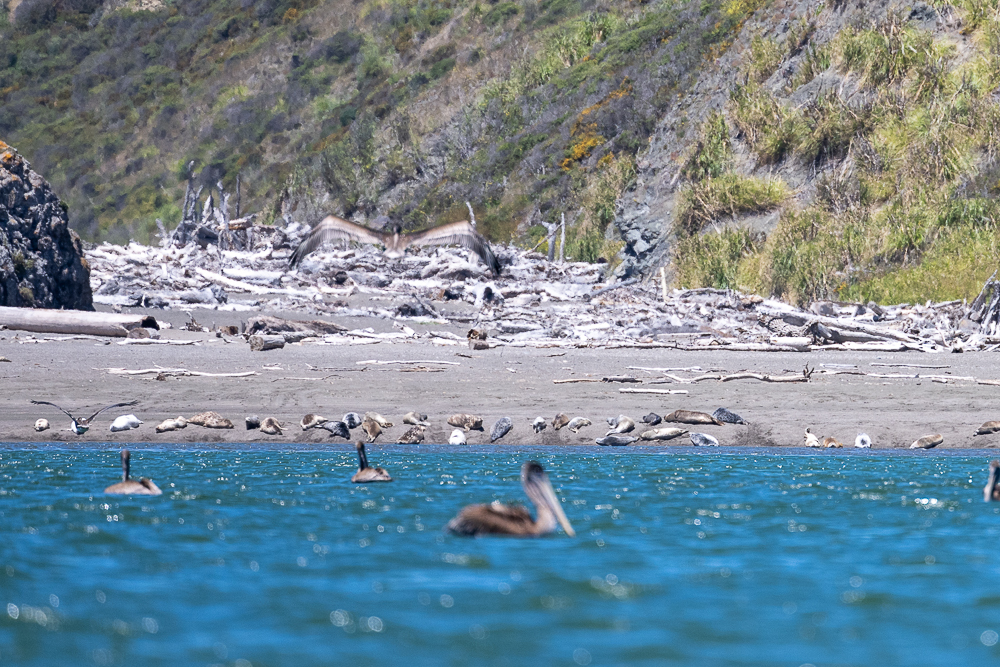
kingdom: Animalia
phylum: Chordata
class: Aves
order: Pelecaniformes
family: Pelecanidae
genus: Pelecanus
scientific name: Pelecanus occidentalis
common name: Brown pelican
